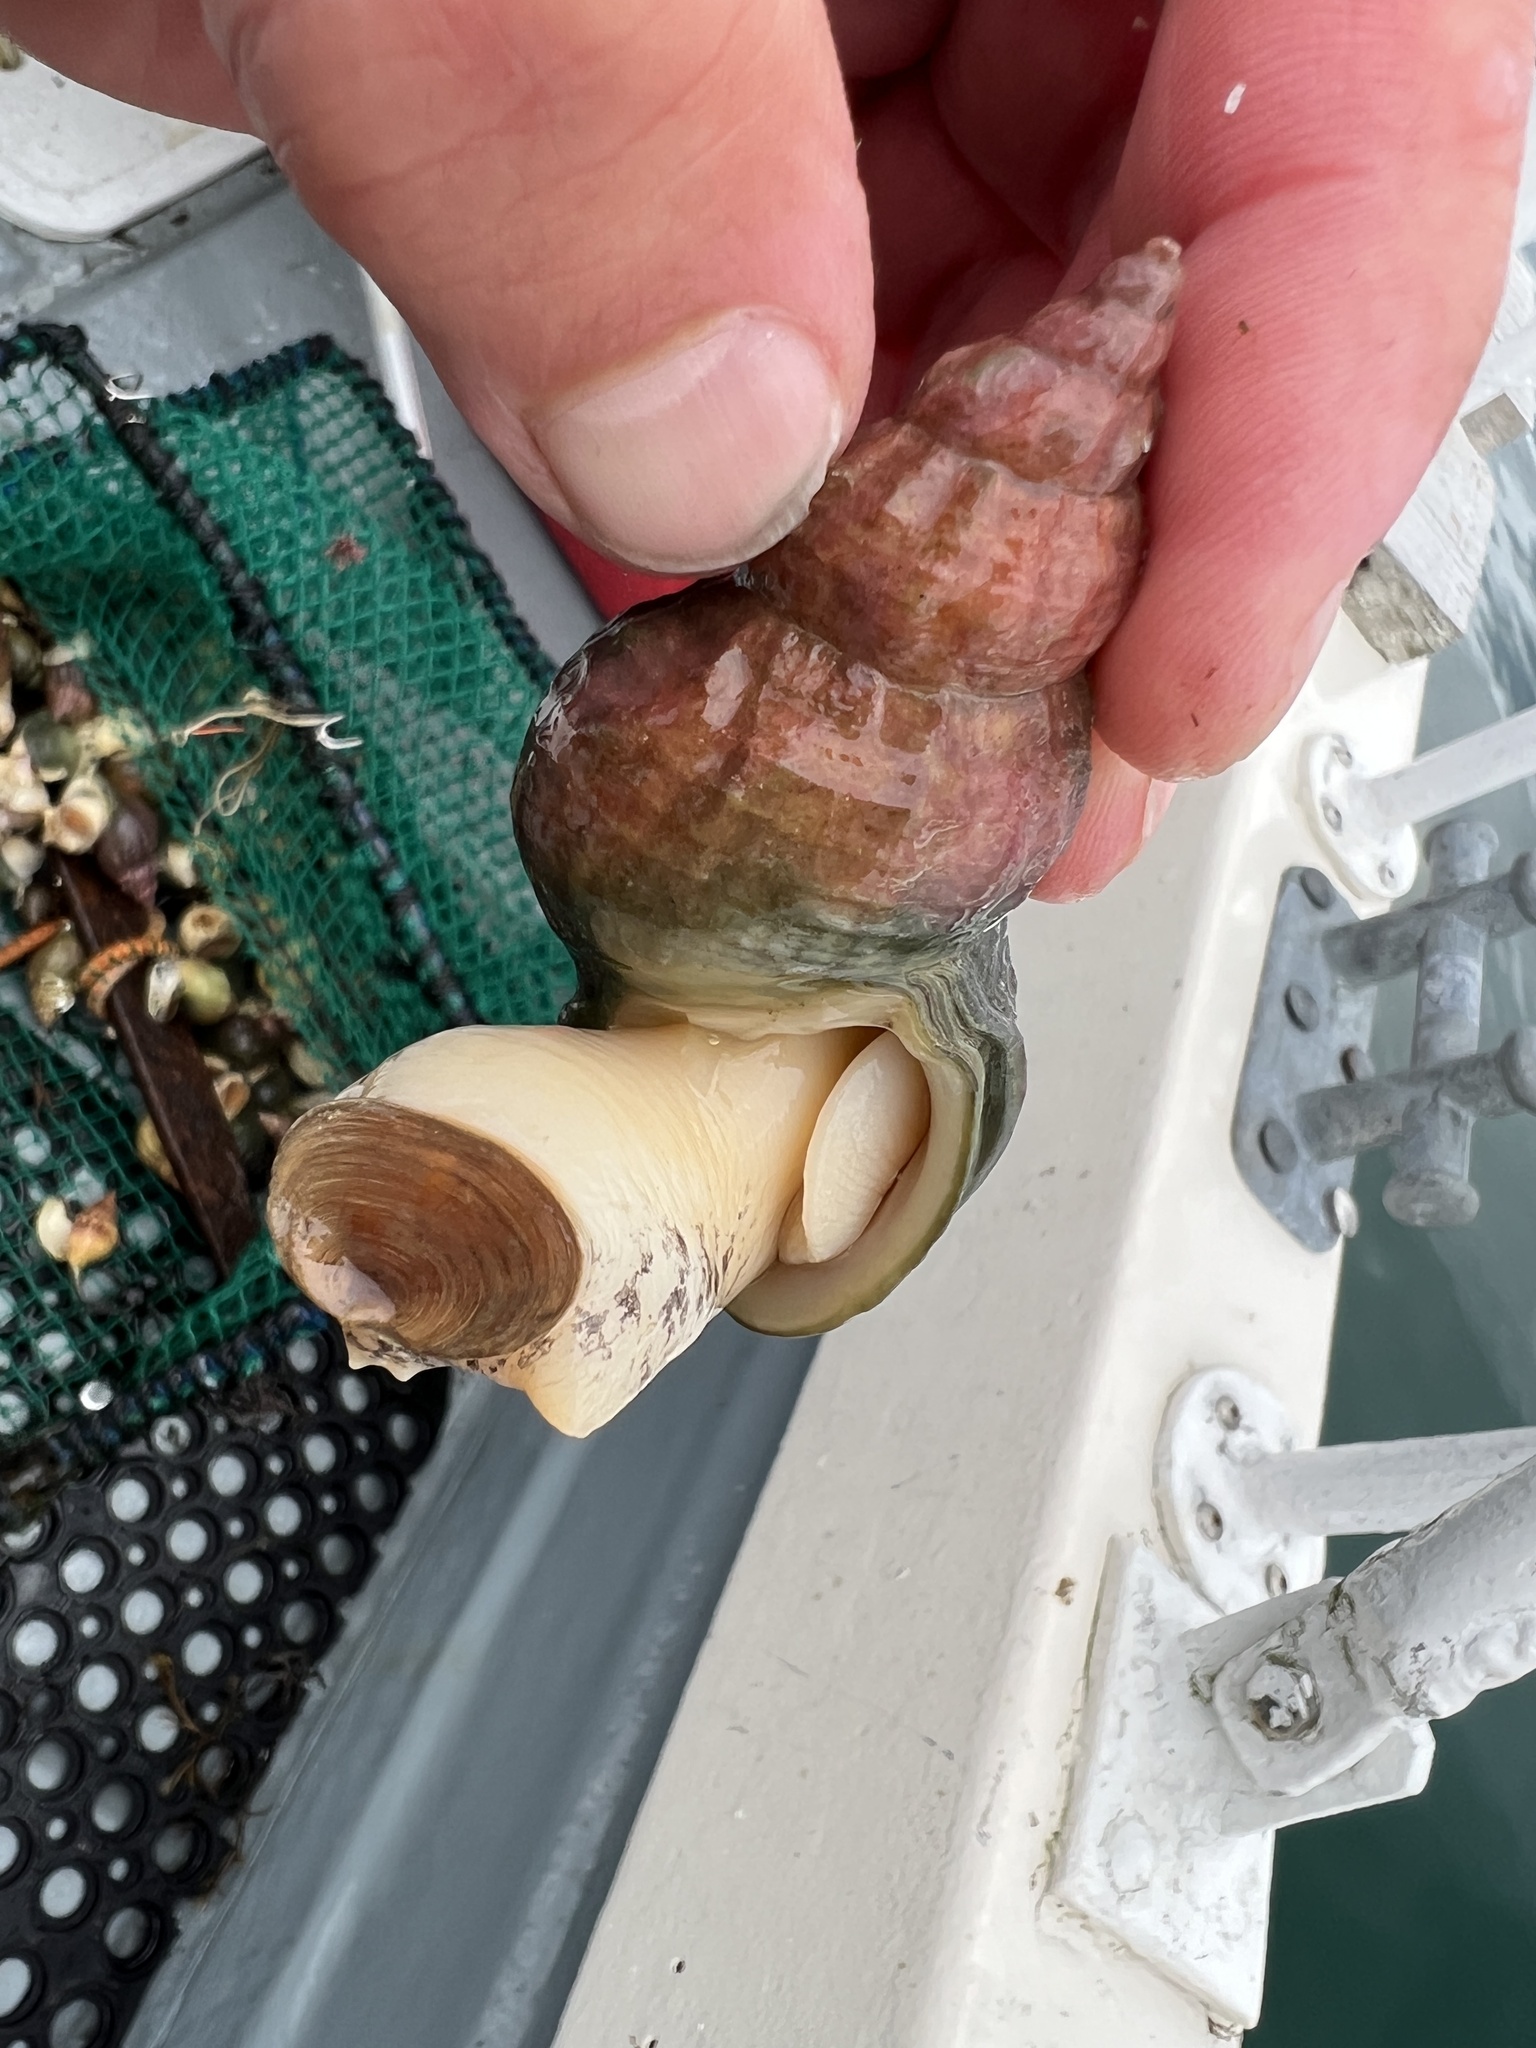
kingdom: Animalia
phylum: Mollusca
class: Gastropoda
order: Neogastropoda
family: Buccinidae
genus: Buccinum
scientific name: Buccinum undatum
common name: Common whelk
